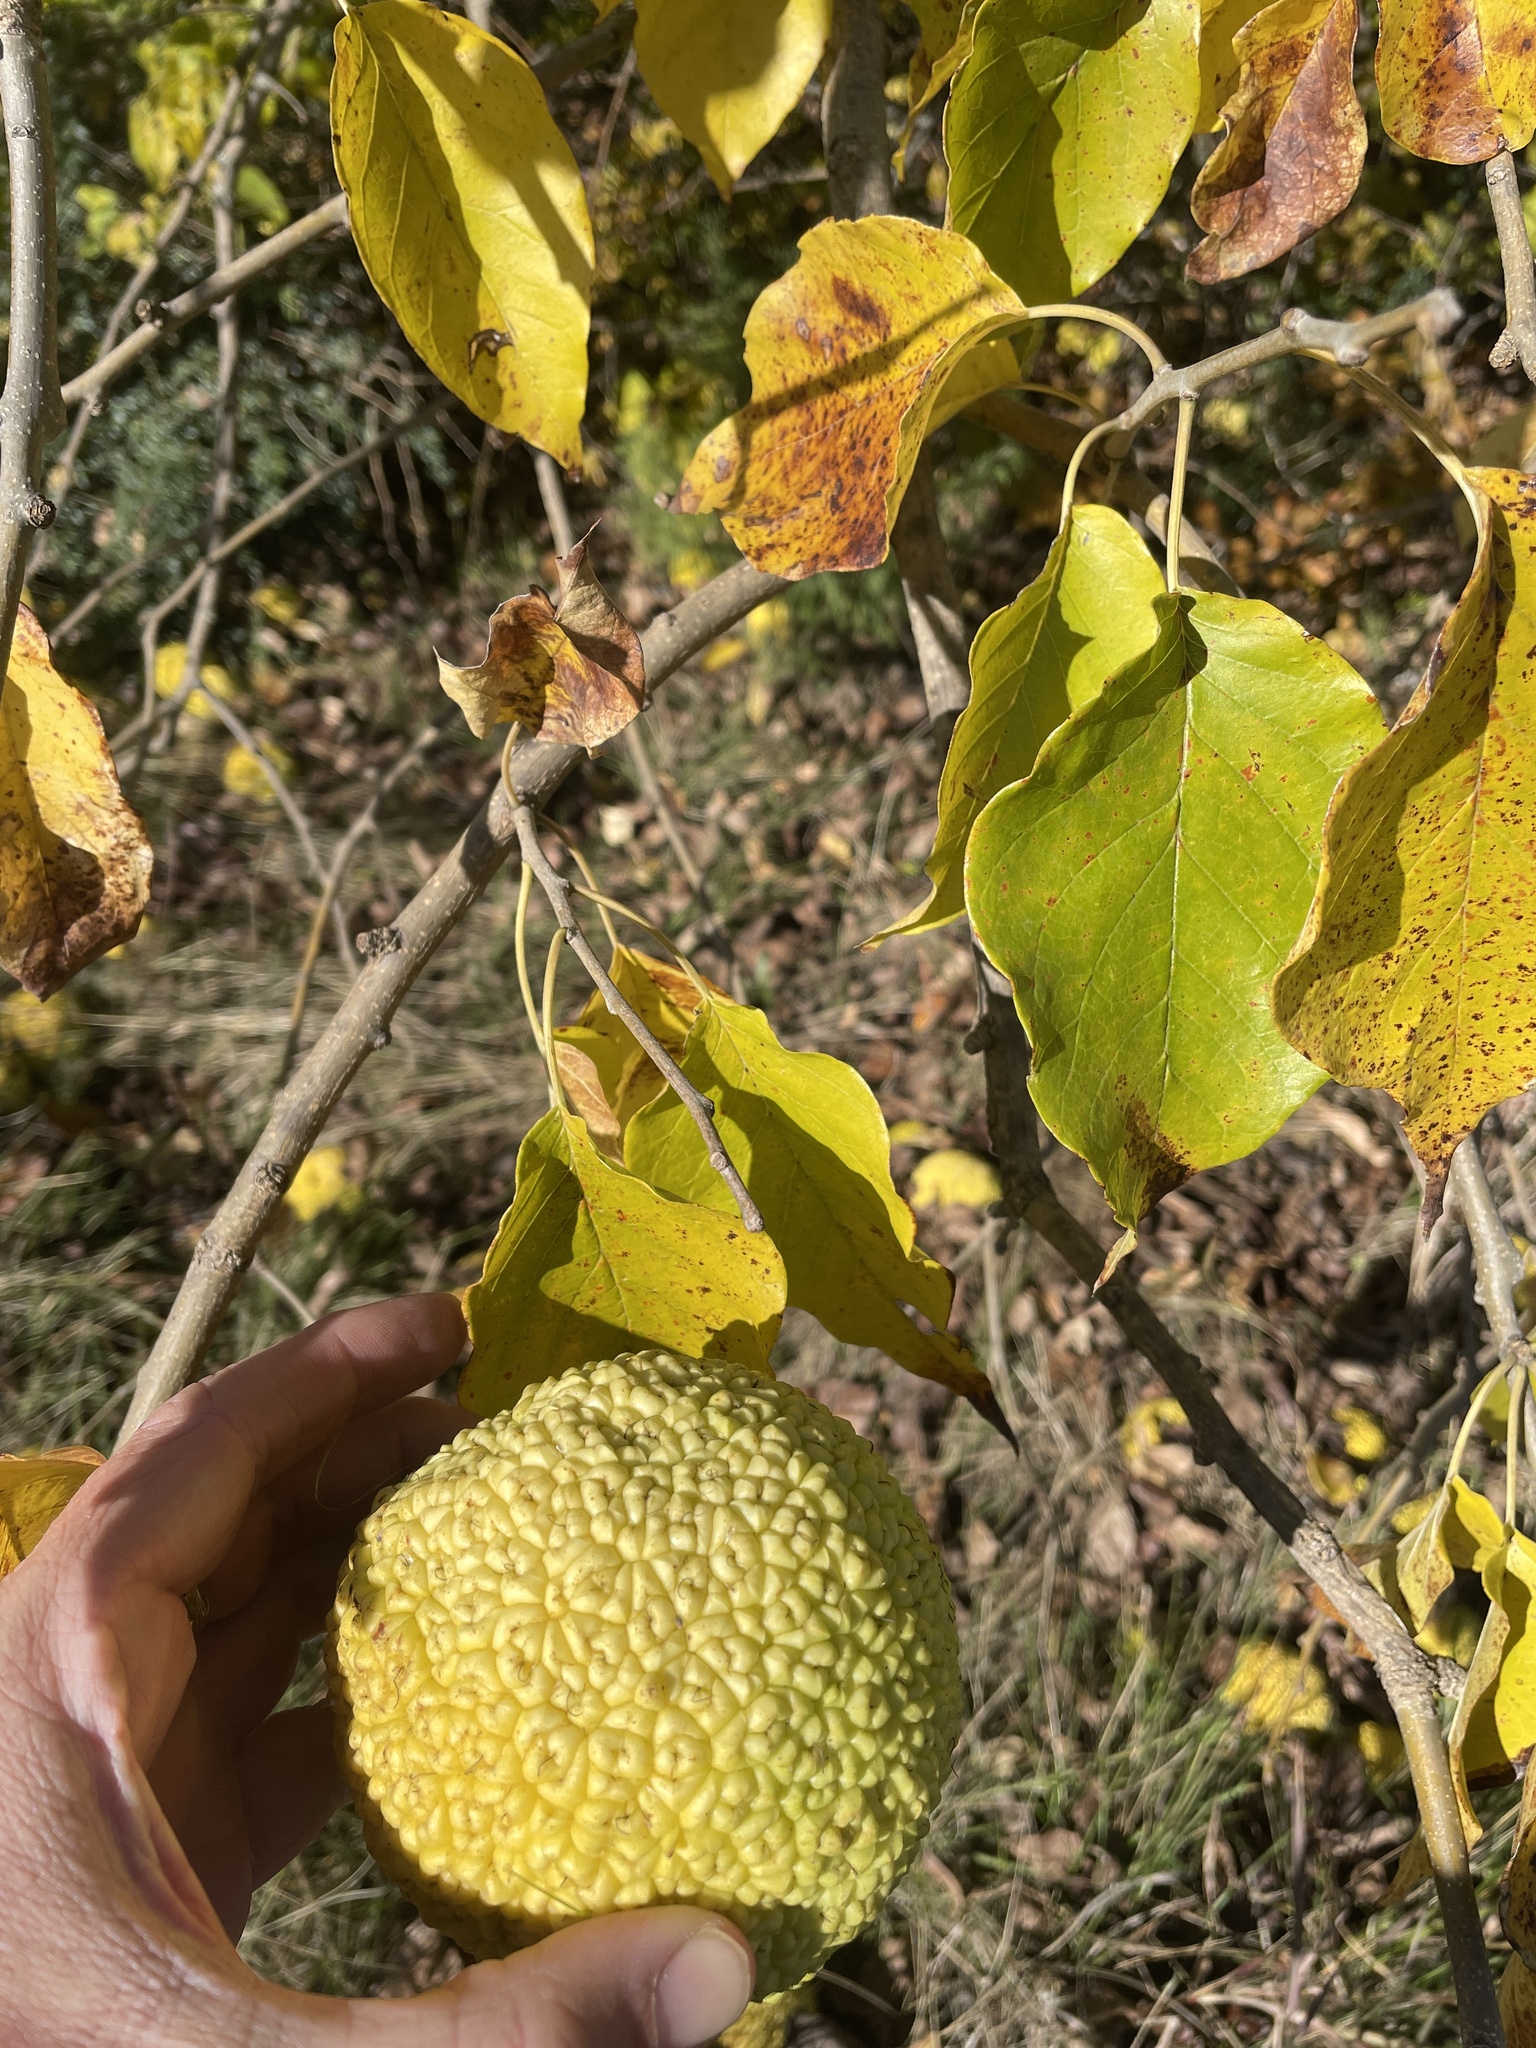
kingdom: Plantae
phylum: Tracheophyta
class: Magnoliopsida
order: Rosales
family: Moraceae
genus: Maclura
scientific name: Maclura pomifera
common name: Osage-orange
